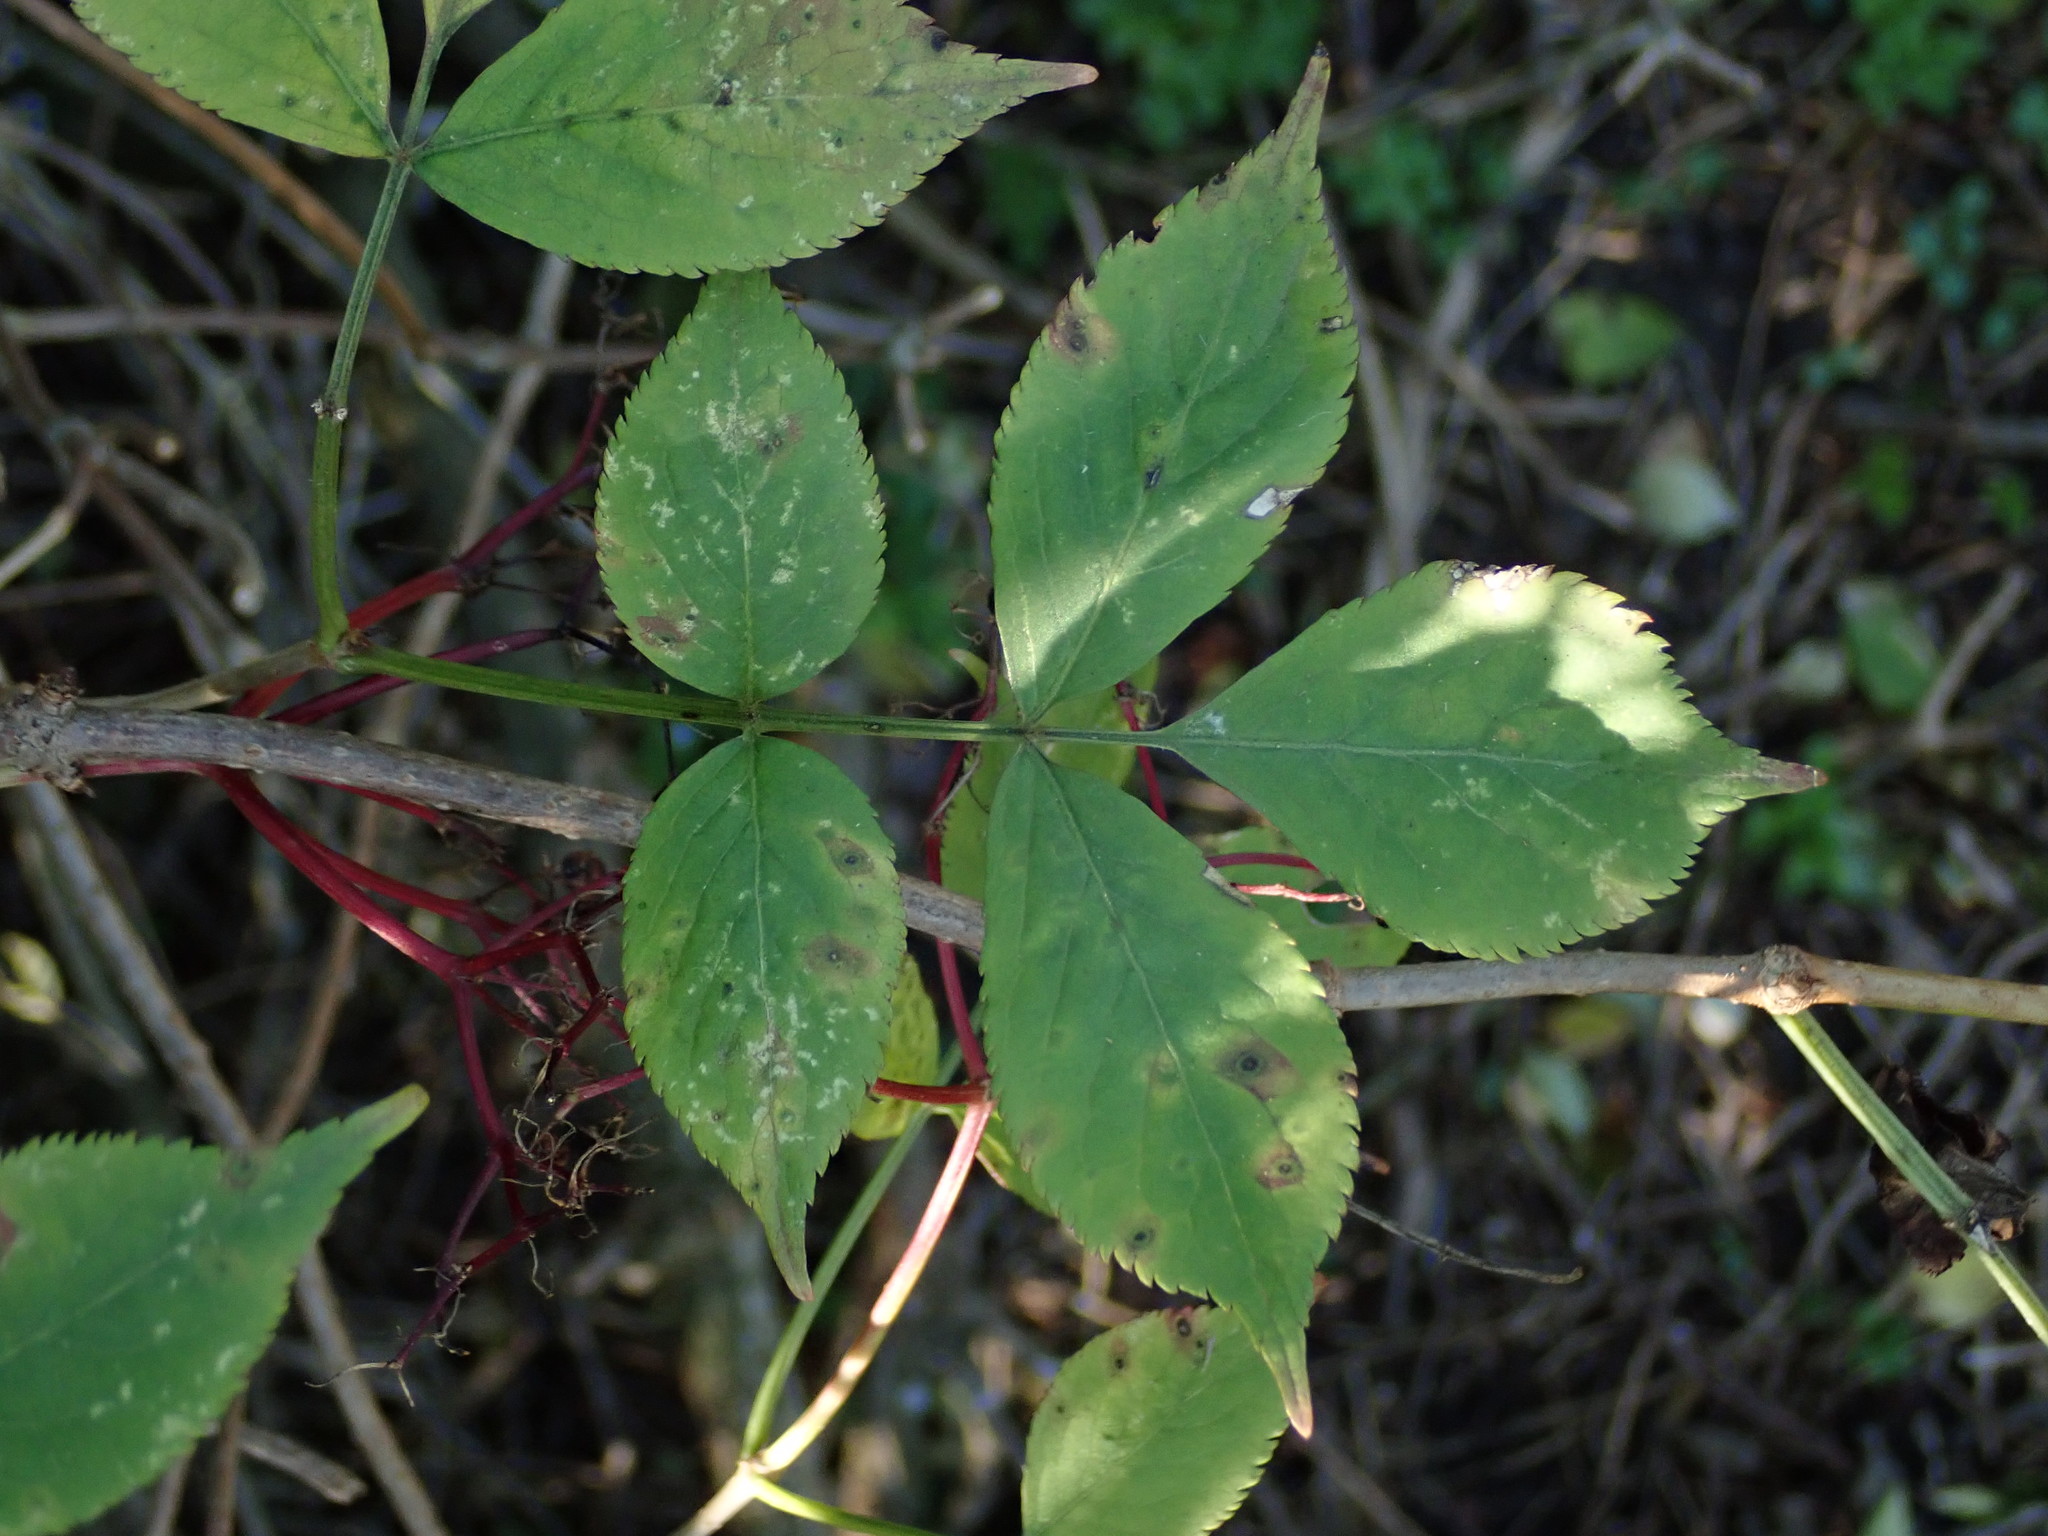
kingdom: Plantae
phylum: Tracheophyta
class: Magnoliopsida
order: Dipsacales
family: Viburnaceae
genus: Sambucus
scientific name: Sambucus nigra
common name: Elder
